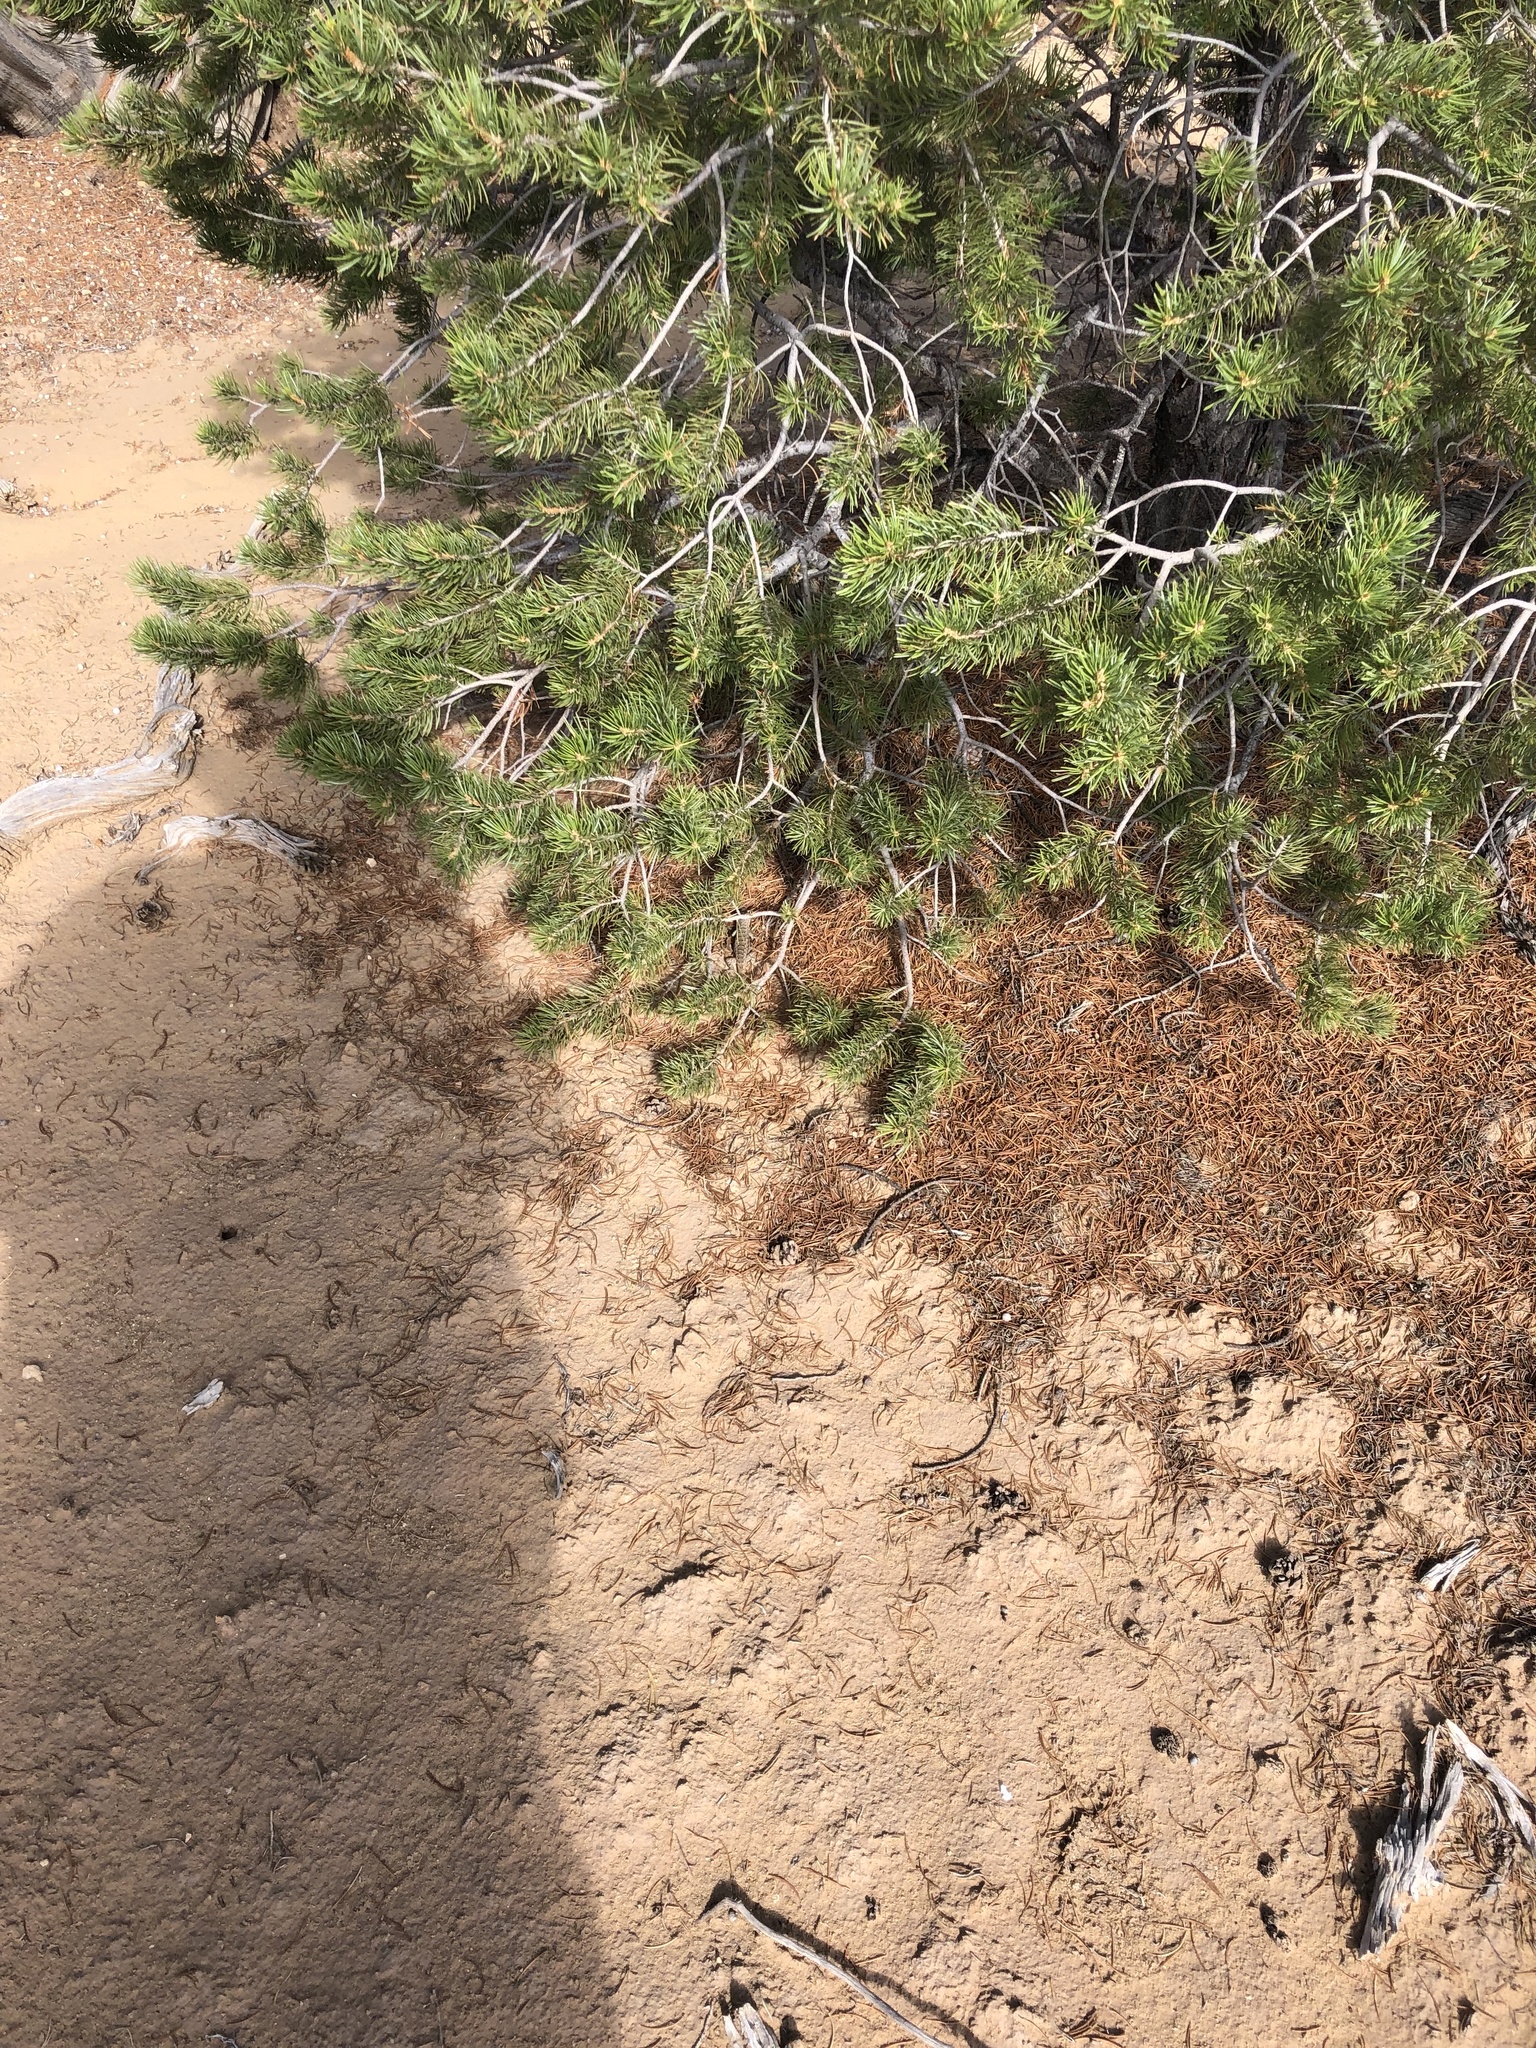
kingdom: Animalia
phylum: Chordata
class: Squamata
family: Phrynosomatidae
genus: Sceloporus
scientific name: Sceloporus tristichus
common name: Plateau fence lizard
